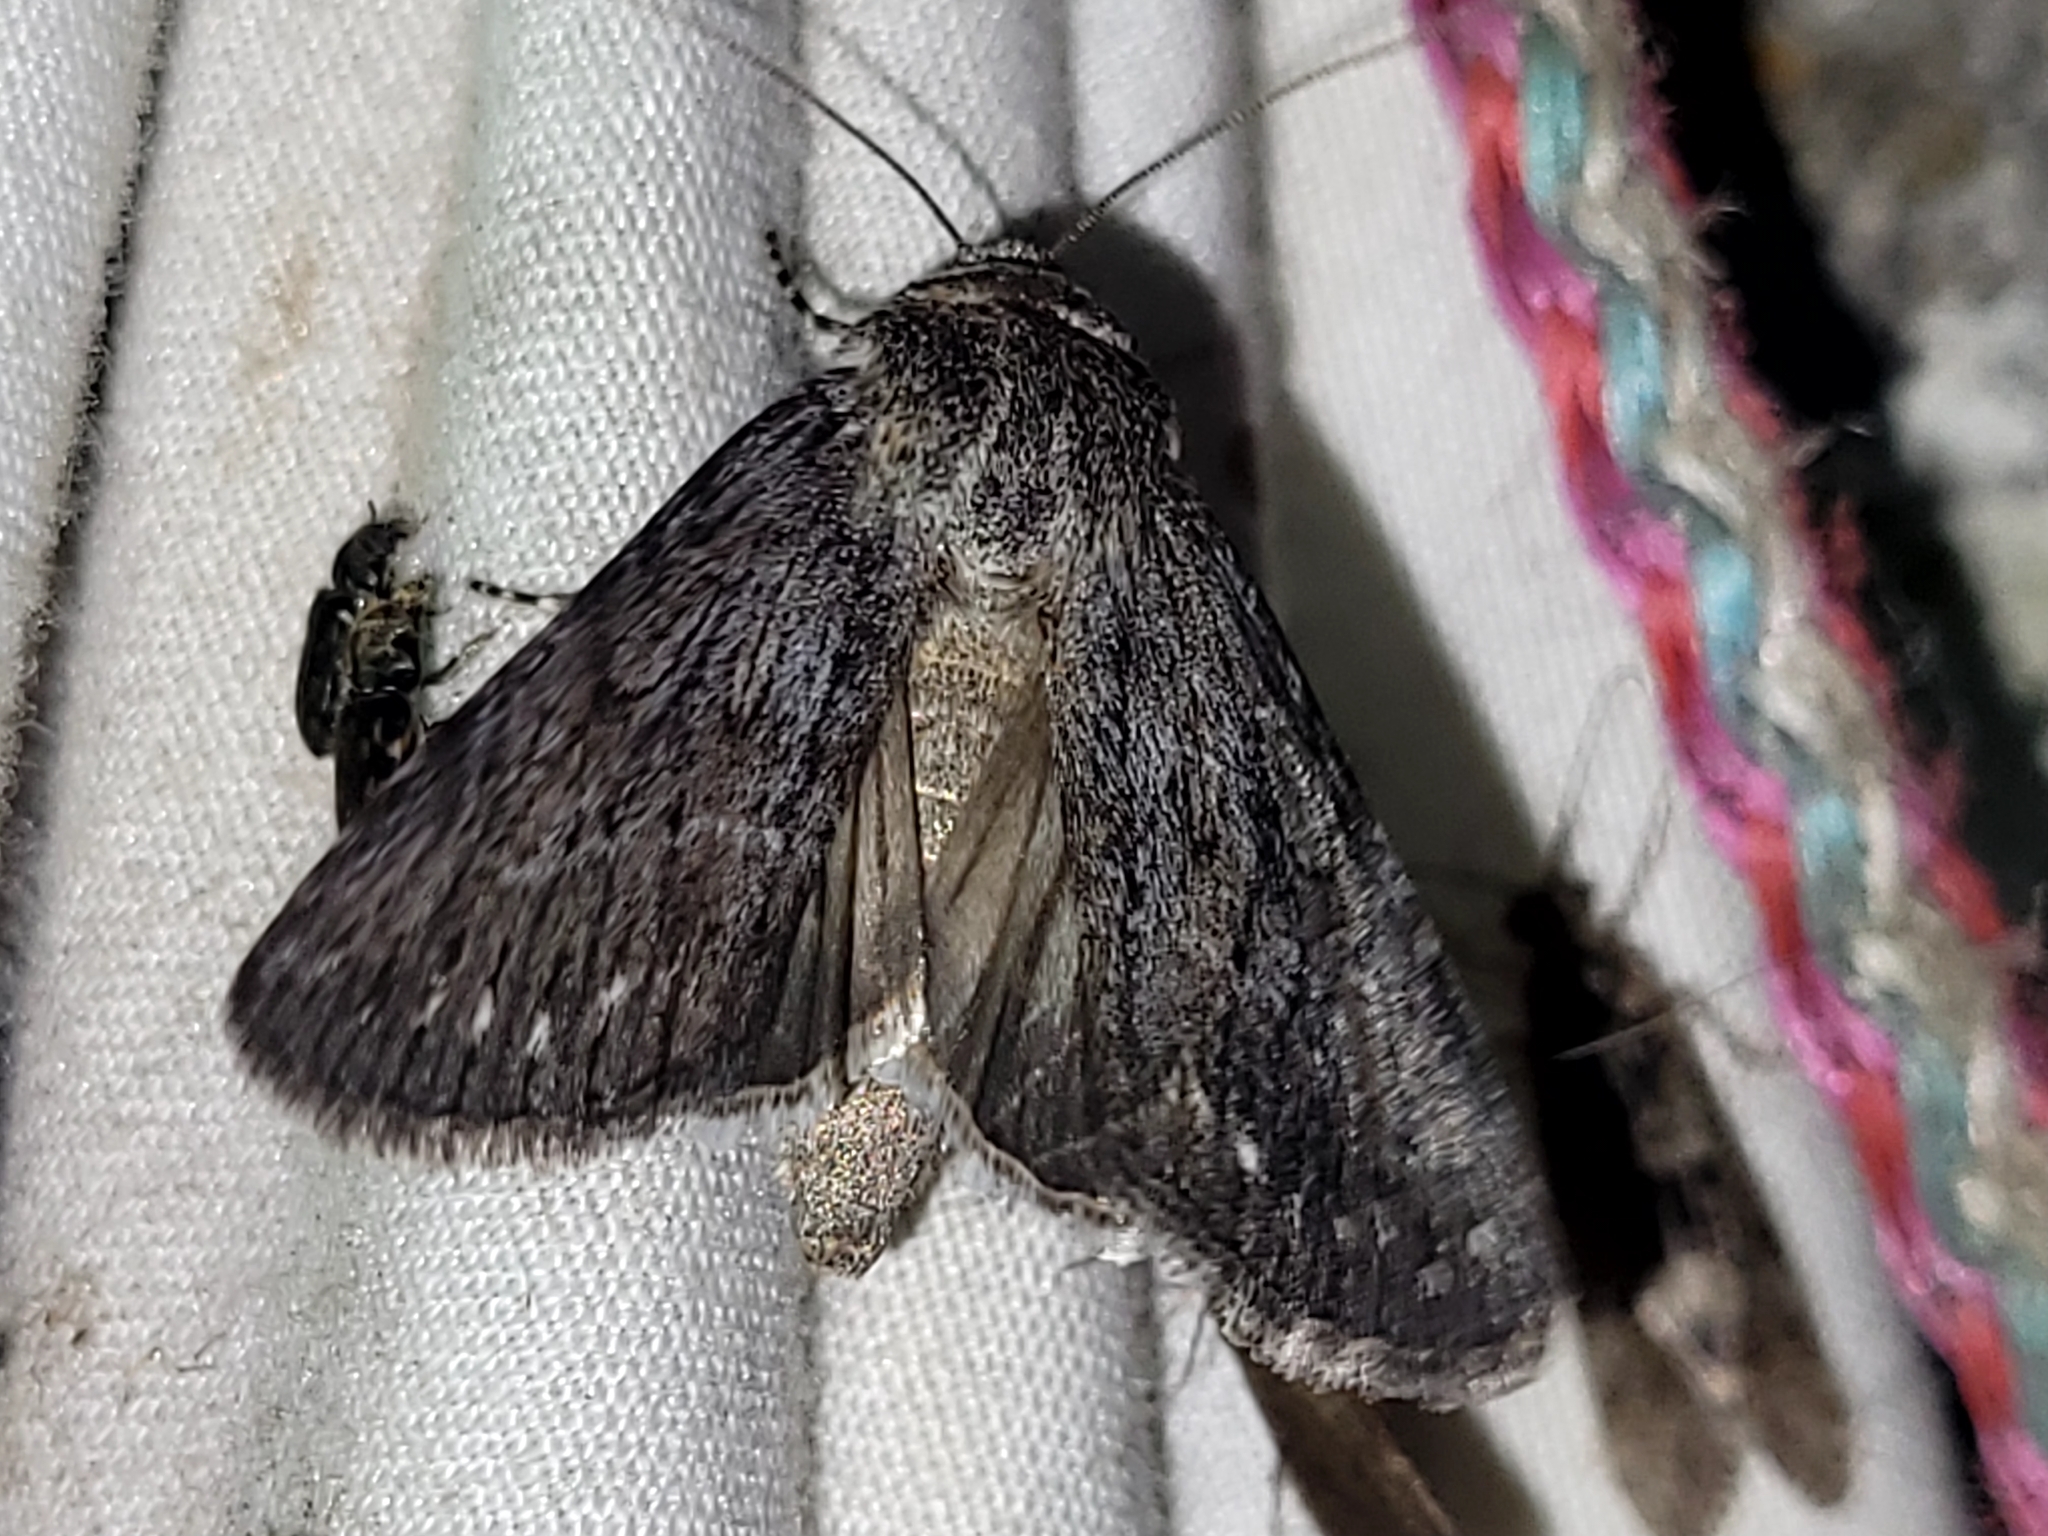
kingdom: Animalia
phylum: Arthropoda
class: Insecta
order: Lepidoptera
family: Noctuidae
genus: Sympistis
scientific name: Sympistis riparia
